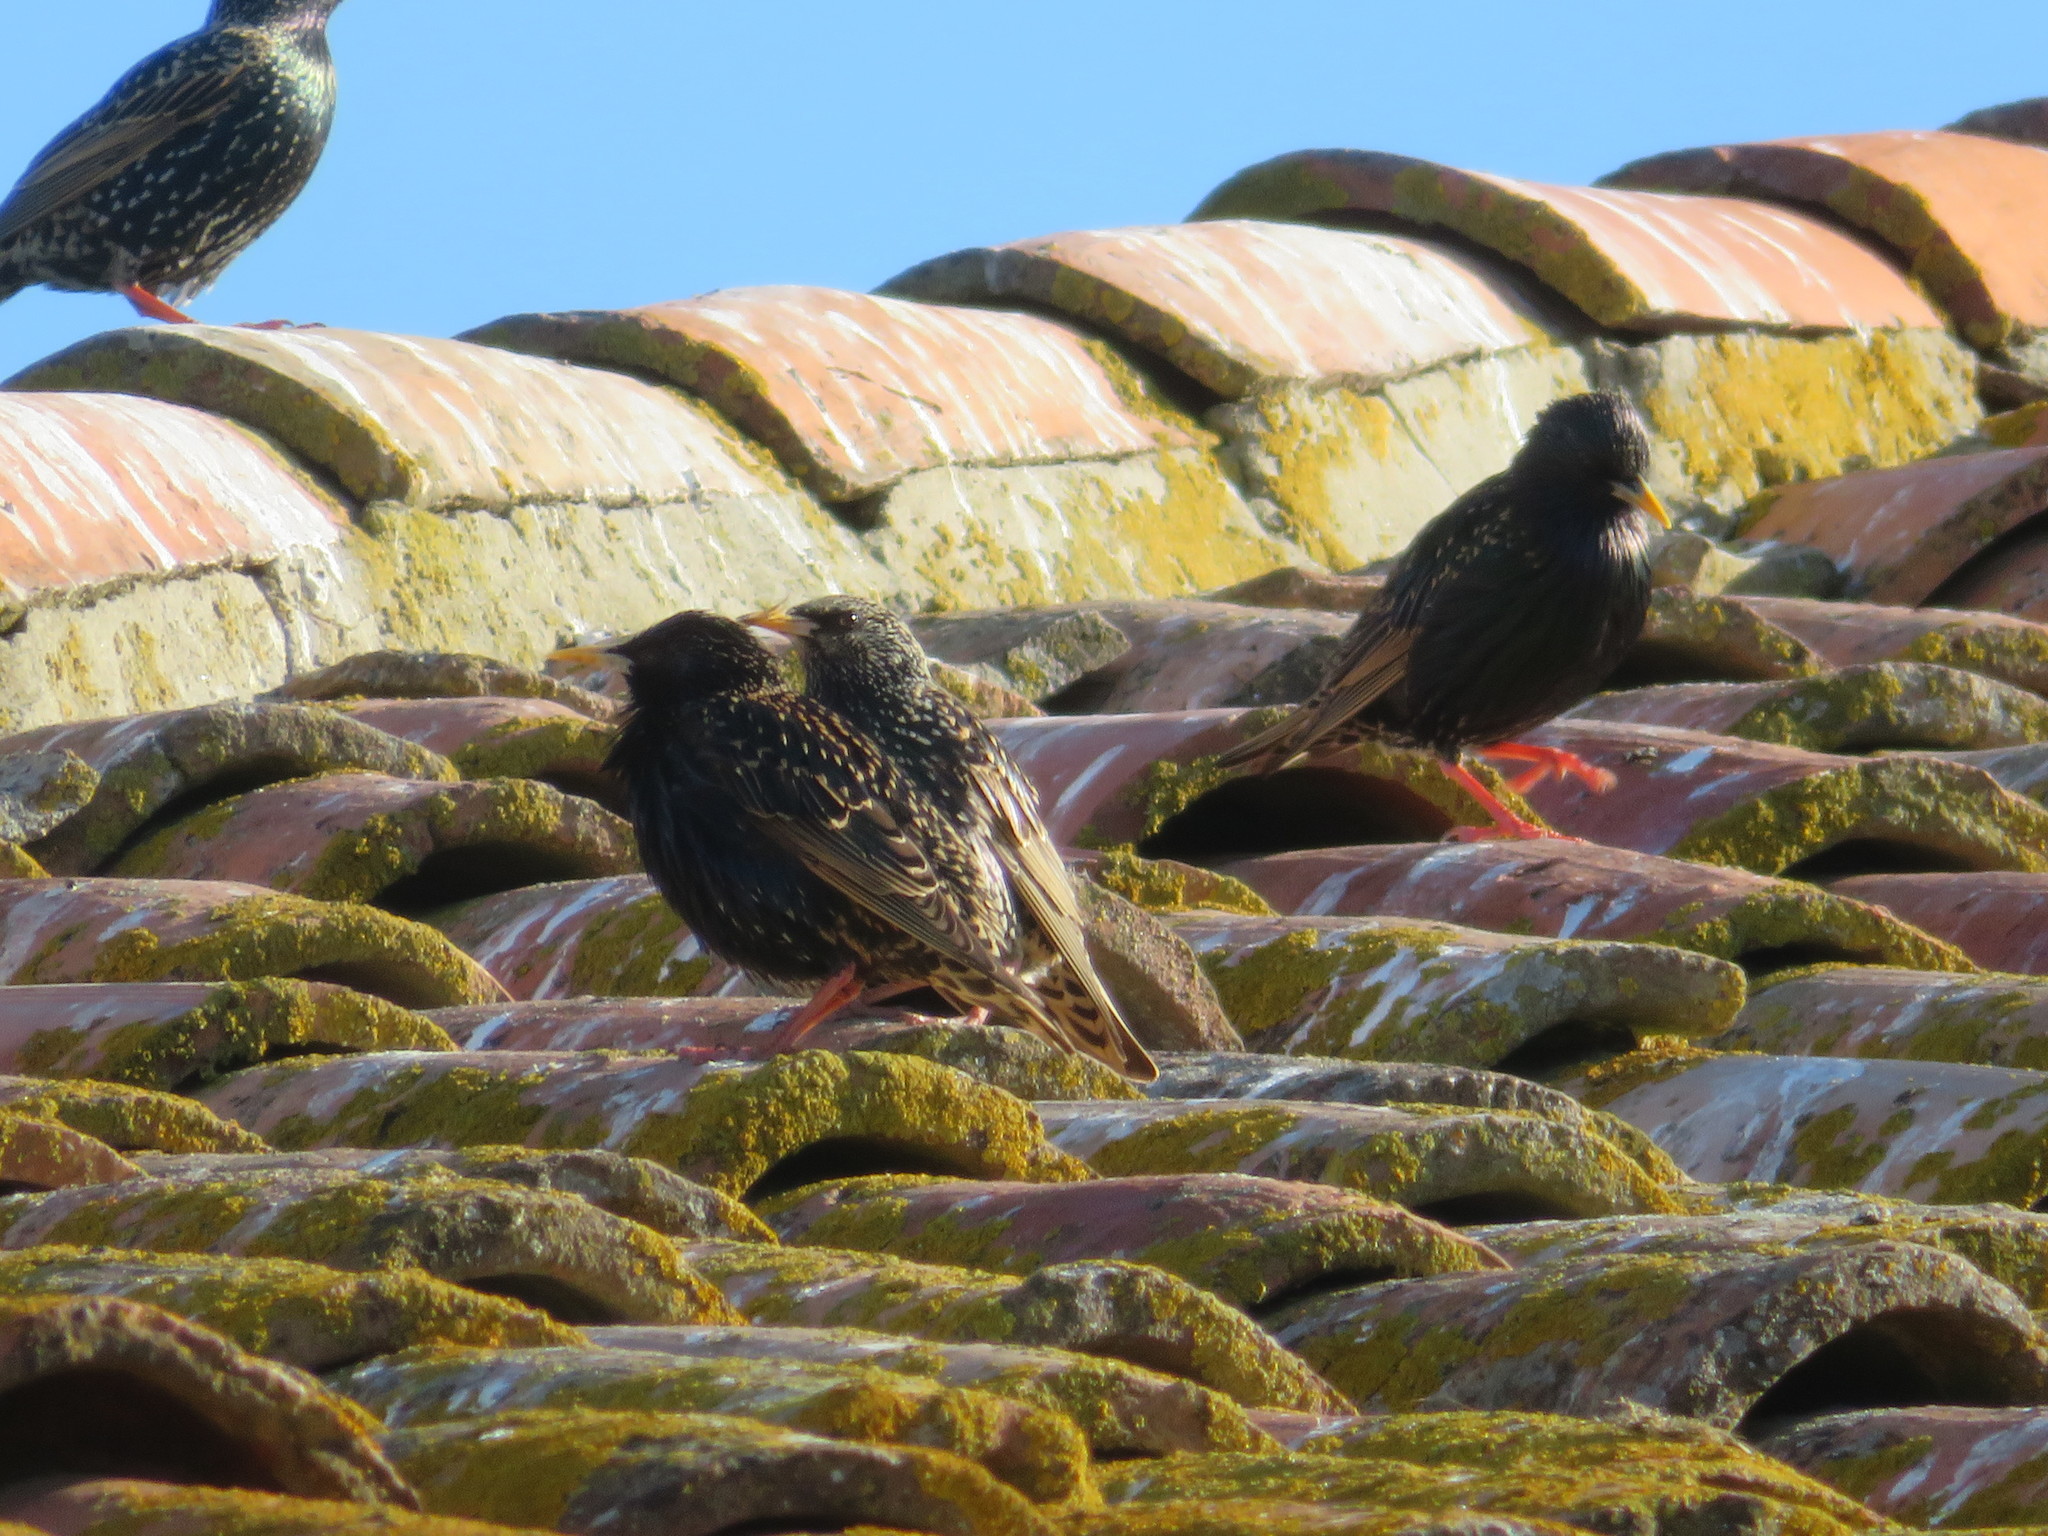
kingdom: Animalia
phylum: Chordata
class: Aves
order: Passeriformes
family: Sturnidae
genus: Sturnus
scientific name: Sturnus vulgaris
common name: Common starling
